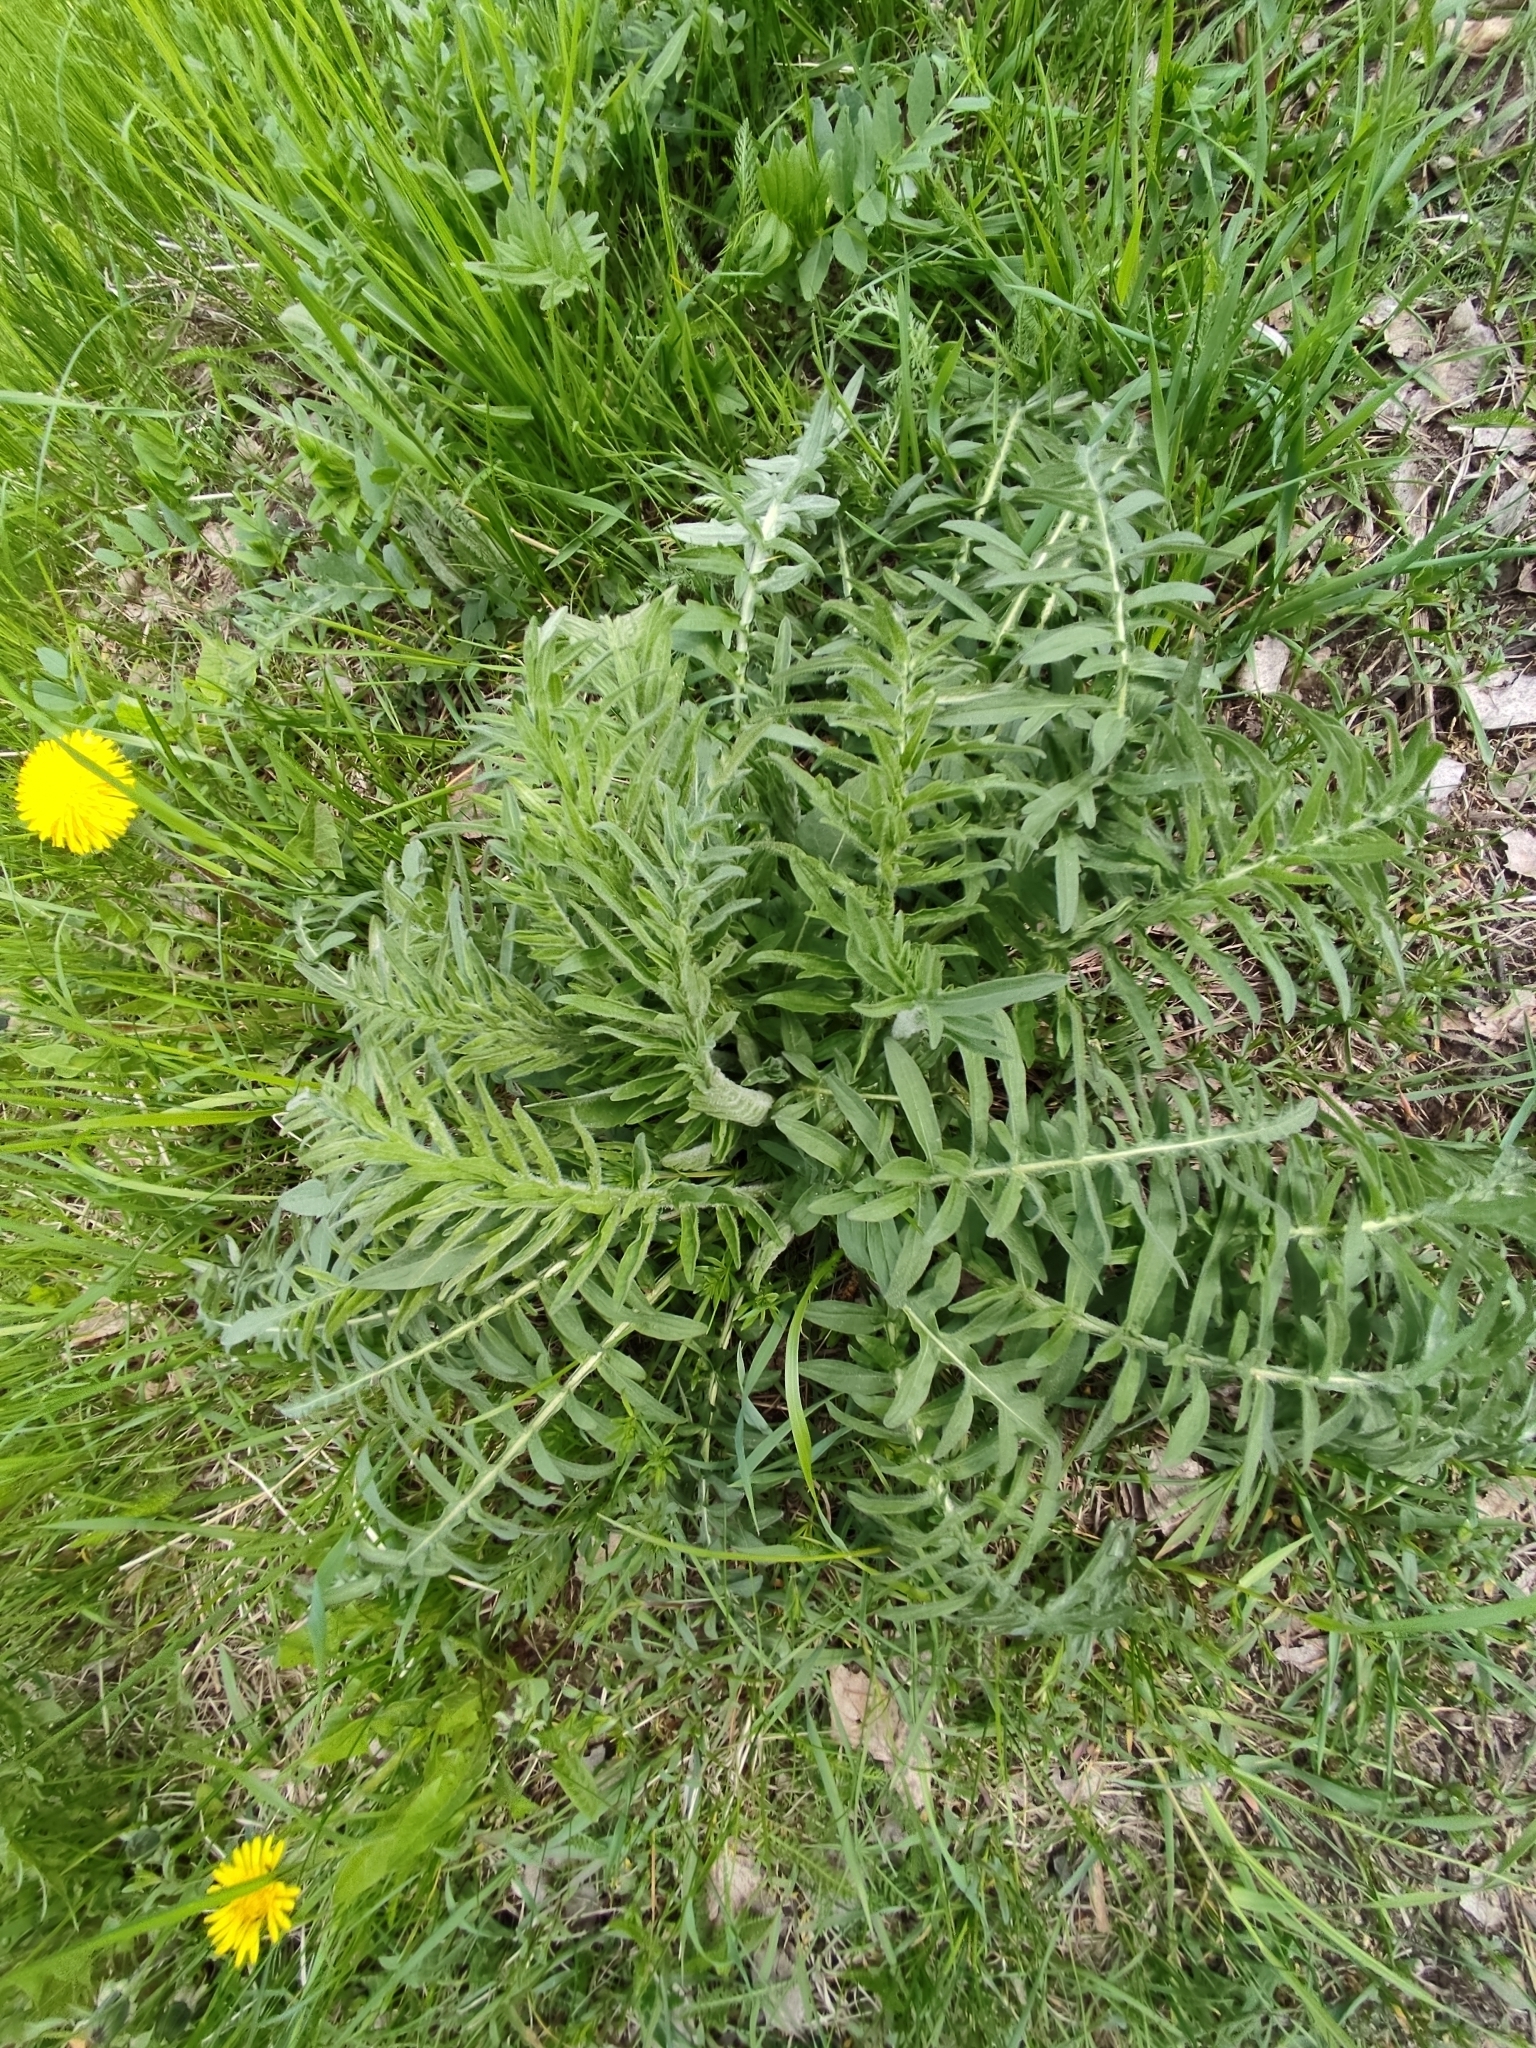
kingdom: Plantae
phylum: Tracheophyta
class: Magnoliopsida
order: Asterales
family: Asteraceae
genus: Centaurea
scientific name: Centaurea scabiosa
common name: Greater knapweed
